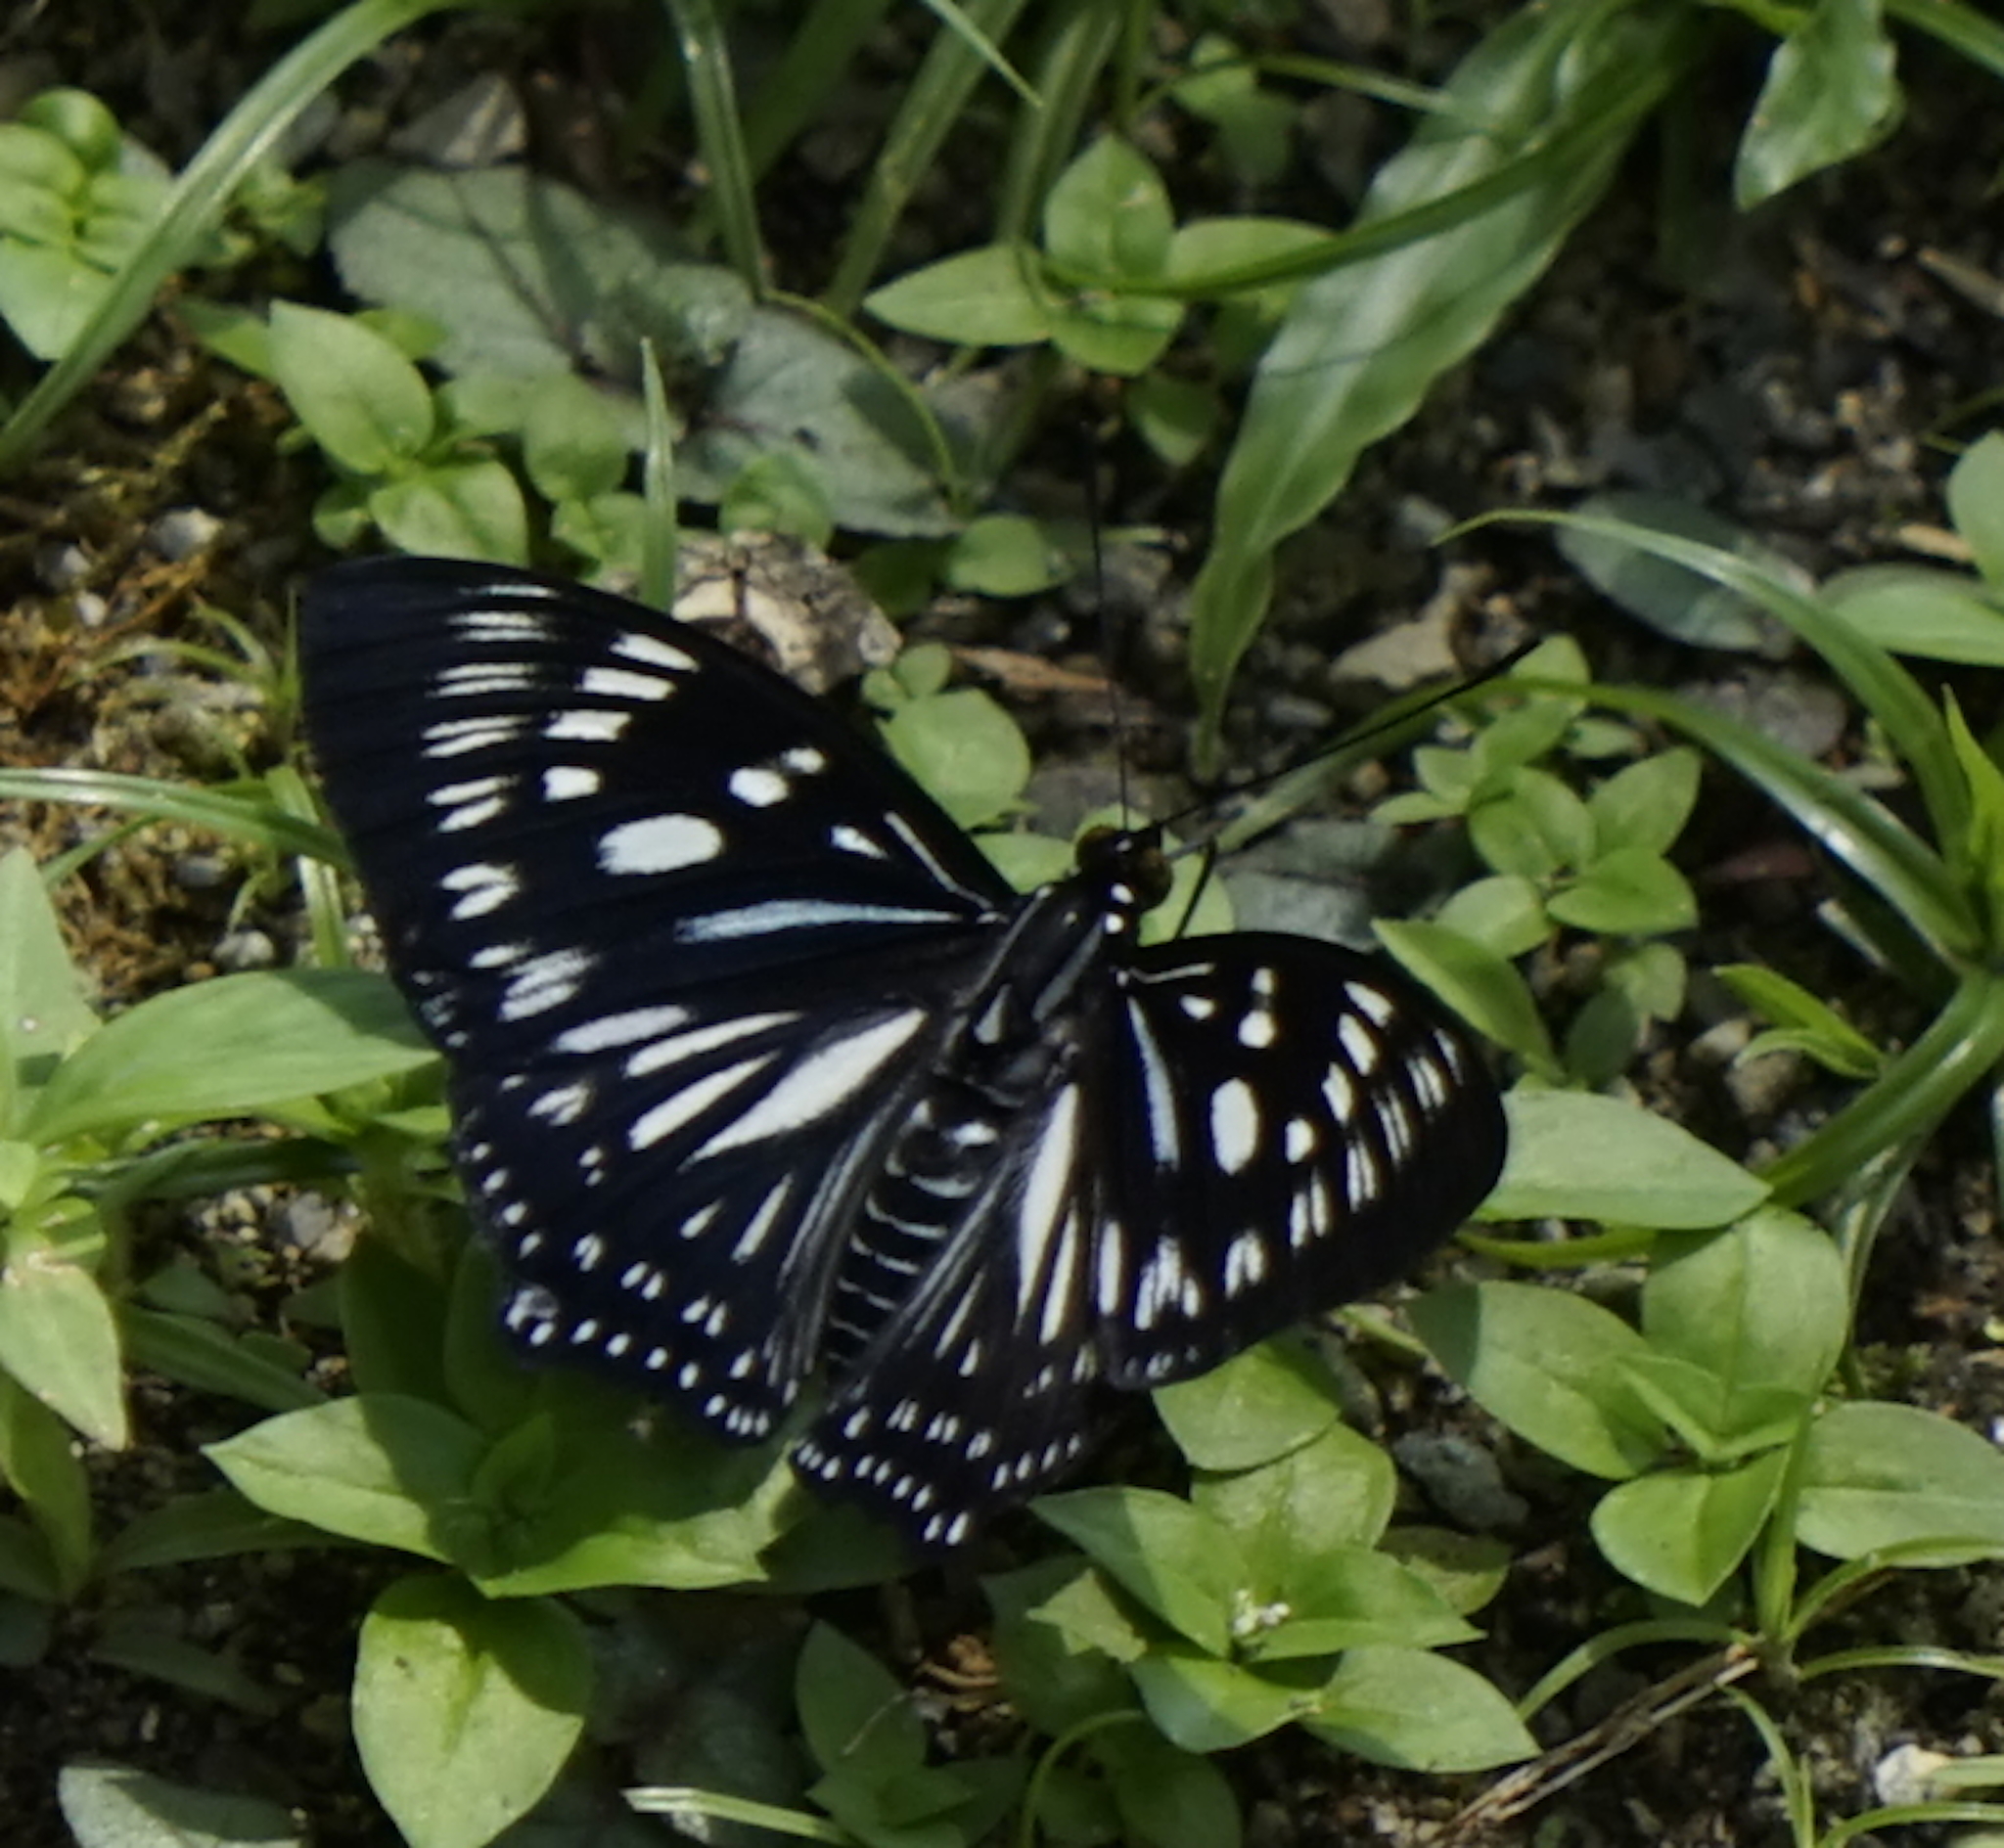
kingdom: Animalia
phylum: Arthropoda
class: Insecta
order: Lepidoptera
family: Nymphalidae
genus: Euripus
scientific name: Euripus nyctelius
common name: Courtesan
